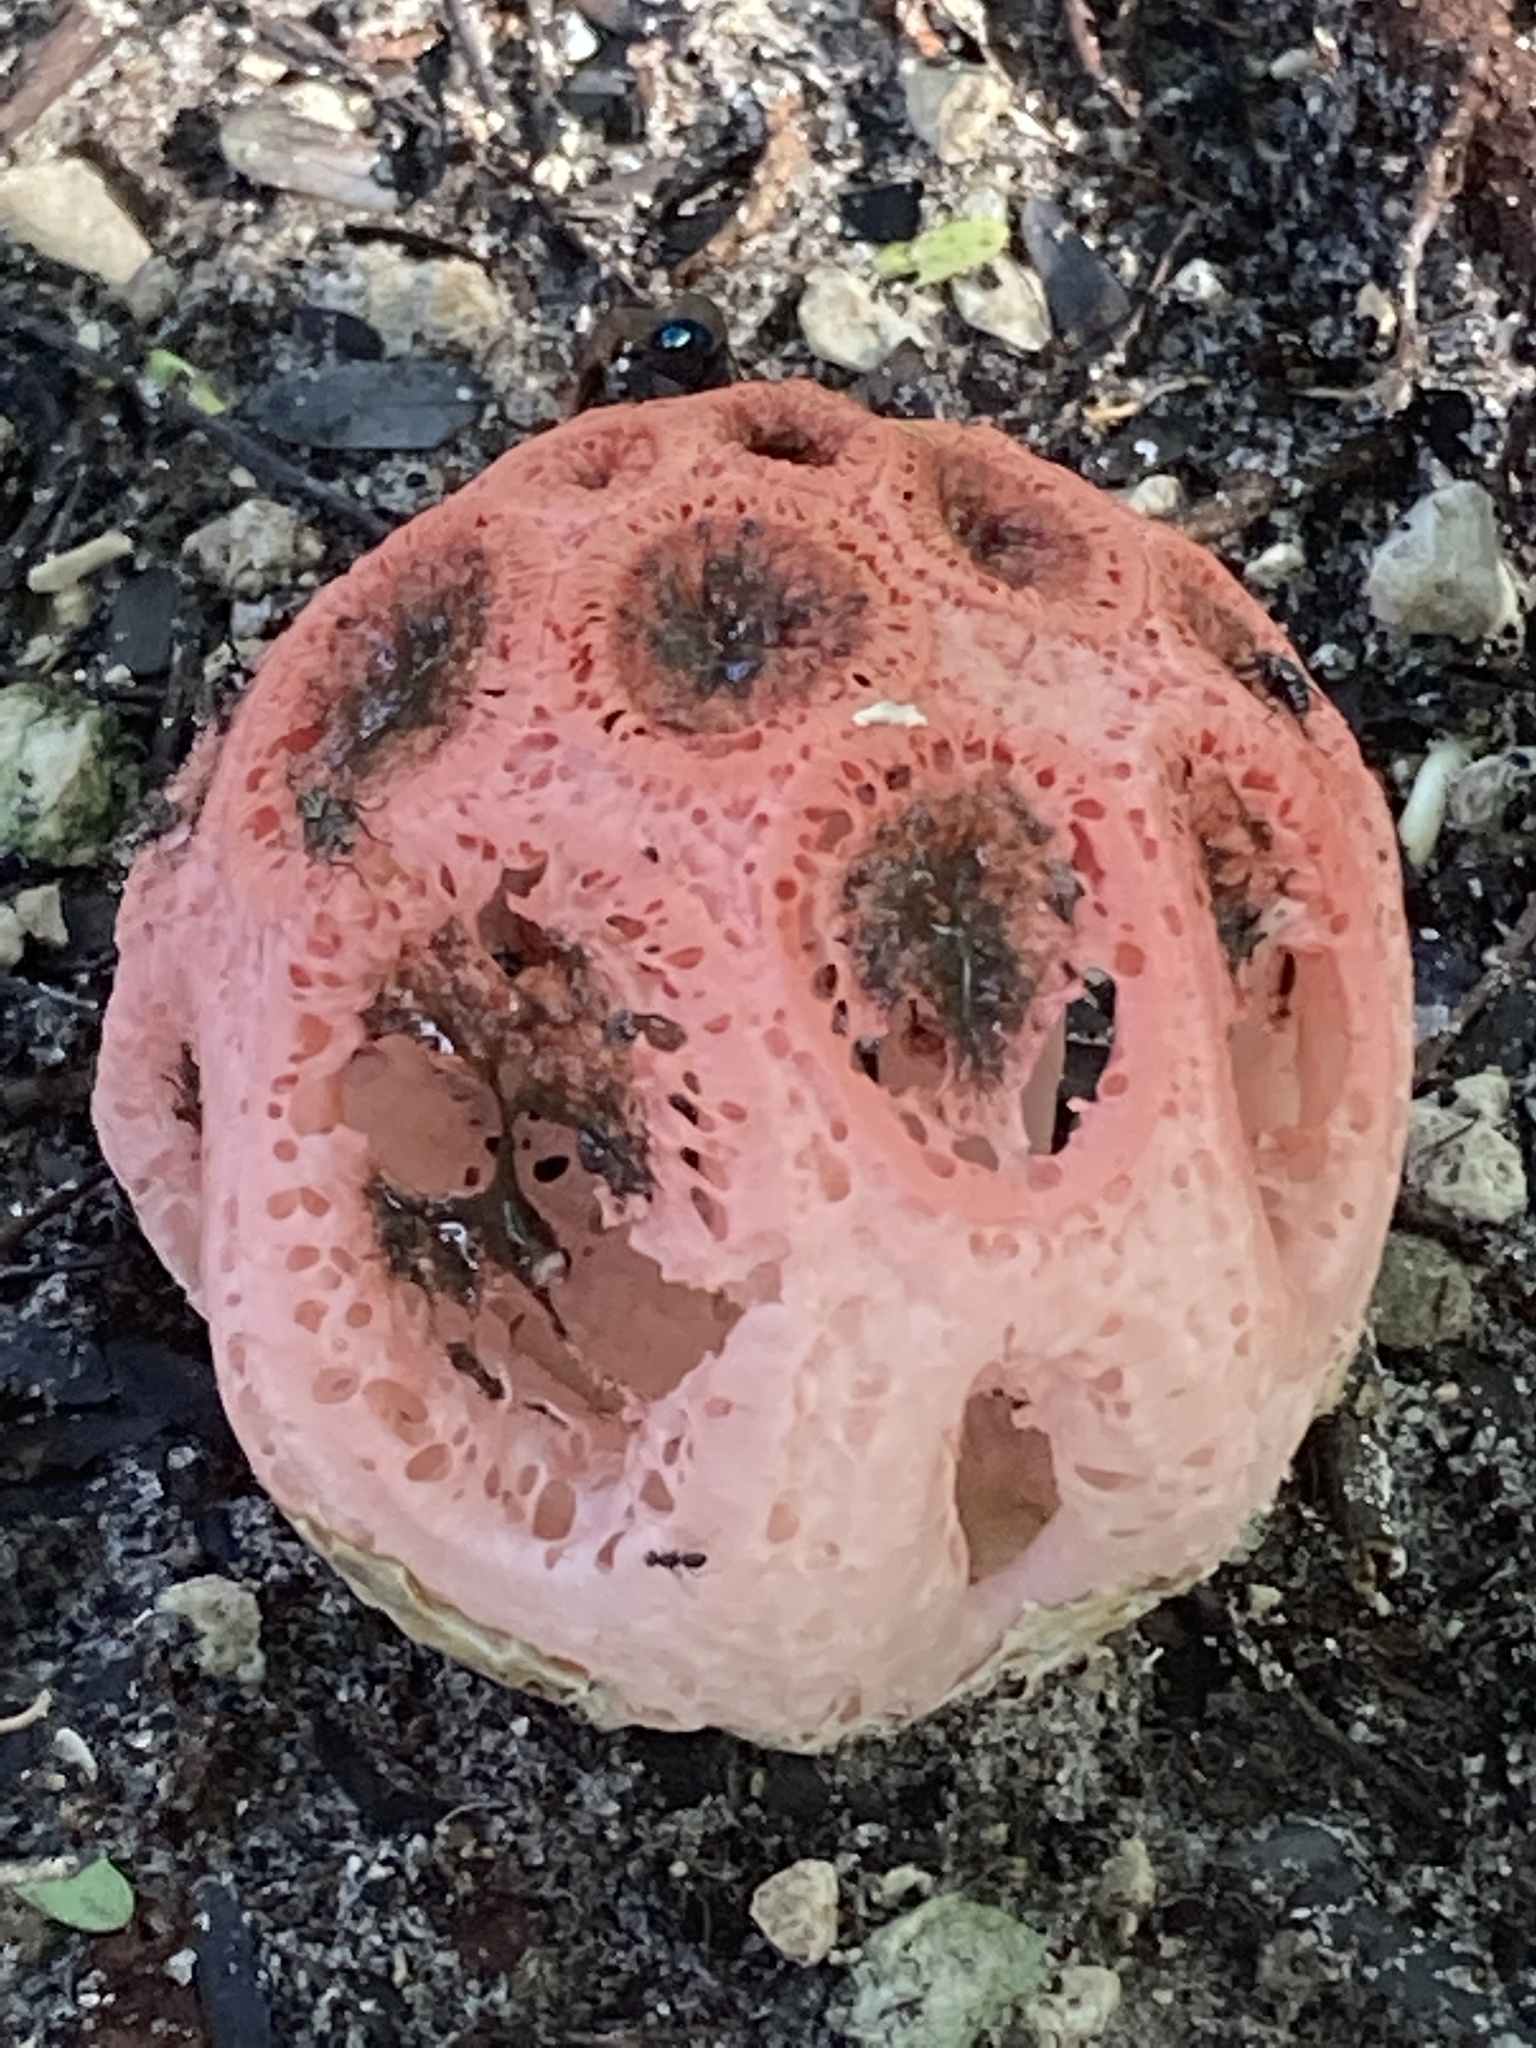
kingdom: Fungi
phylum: Basidiomycota
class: Agaricomycetes
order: Phallales
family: Phallaceae
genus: Clathrus
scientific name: Clathrus crispatus
